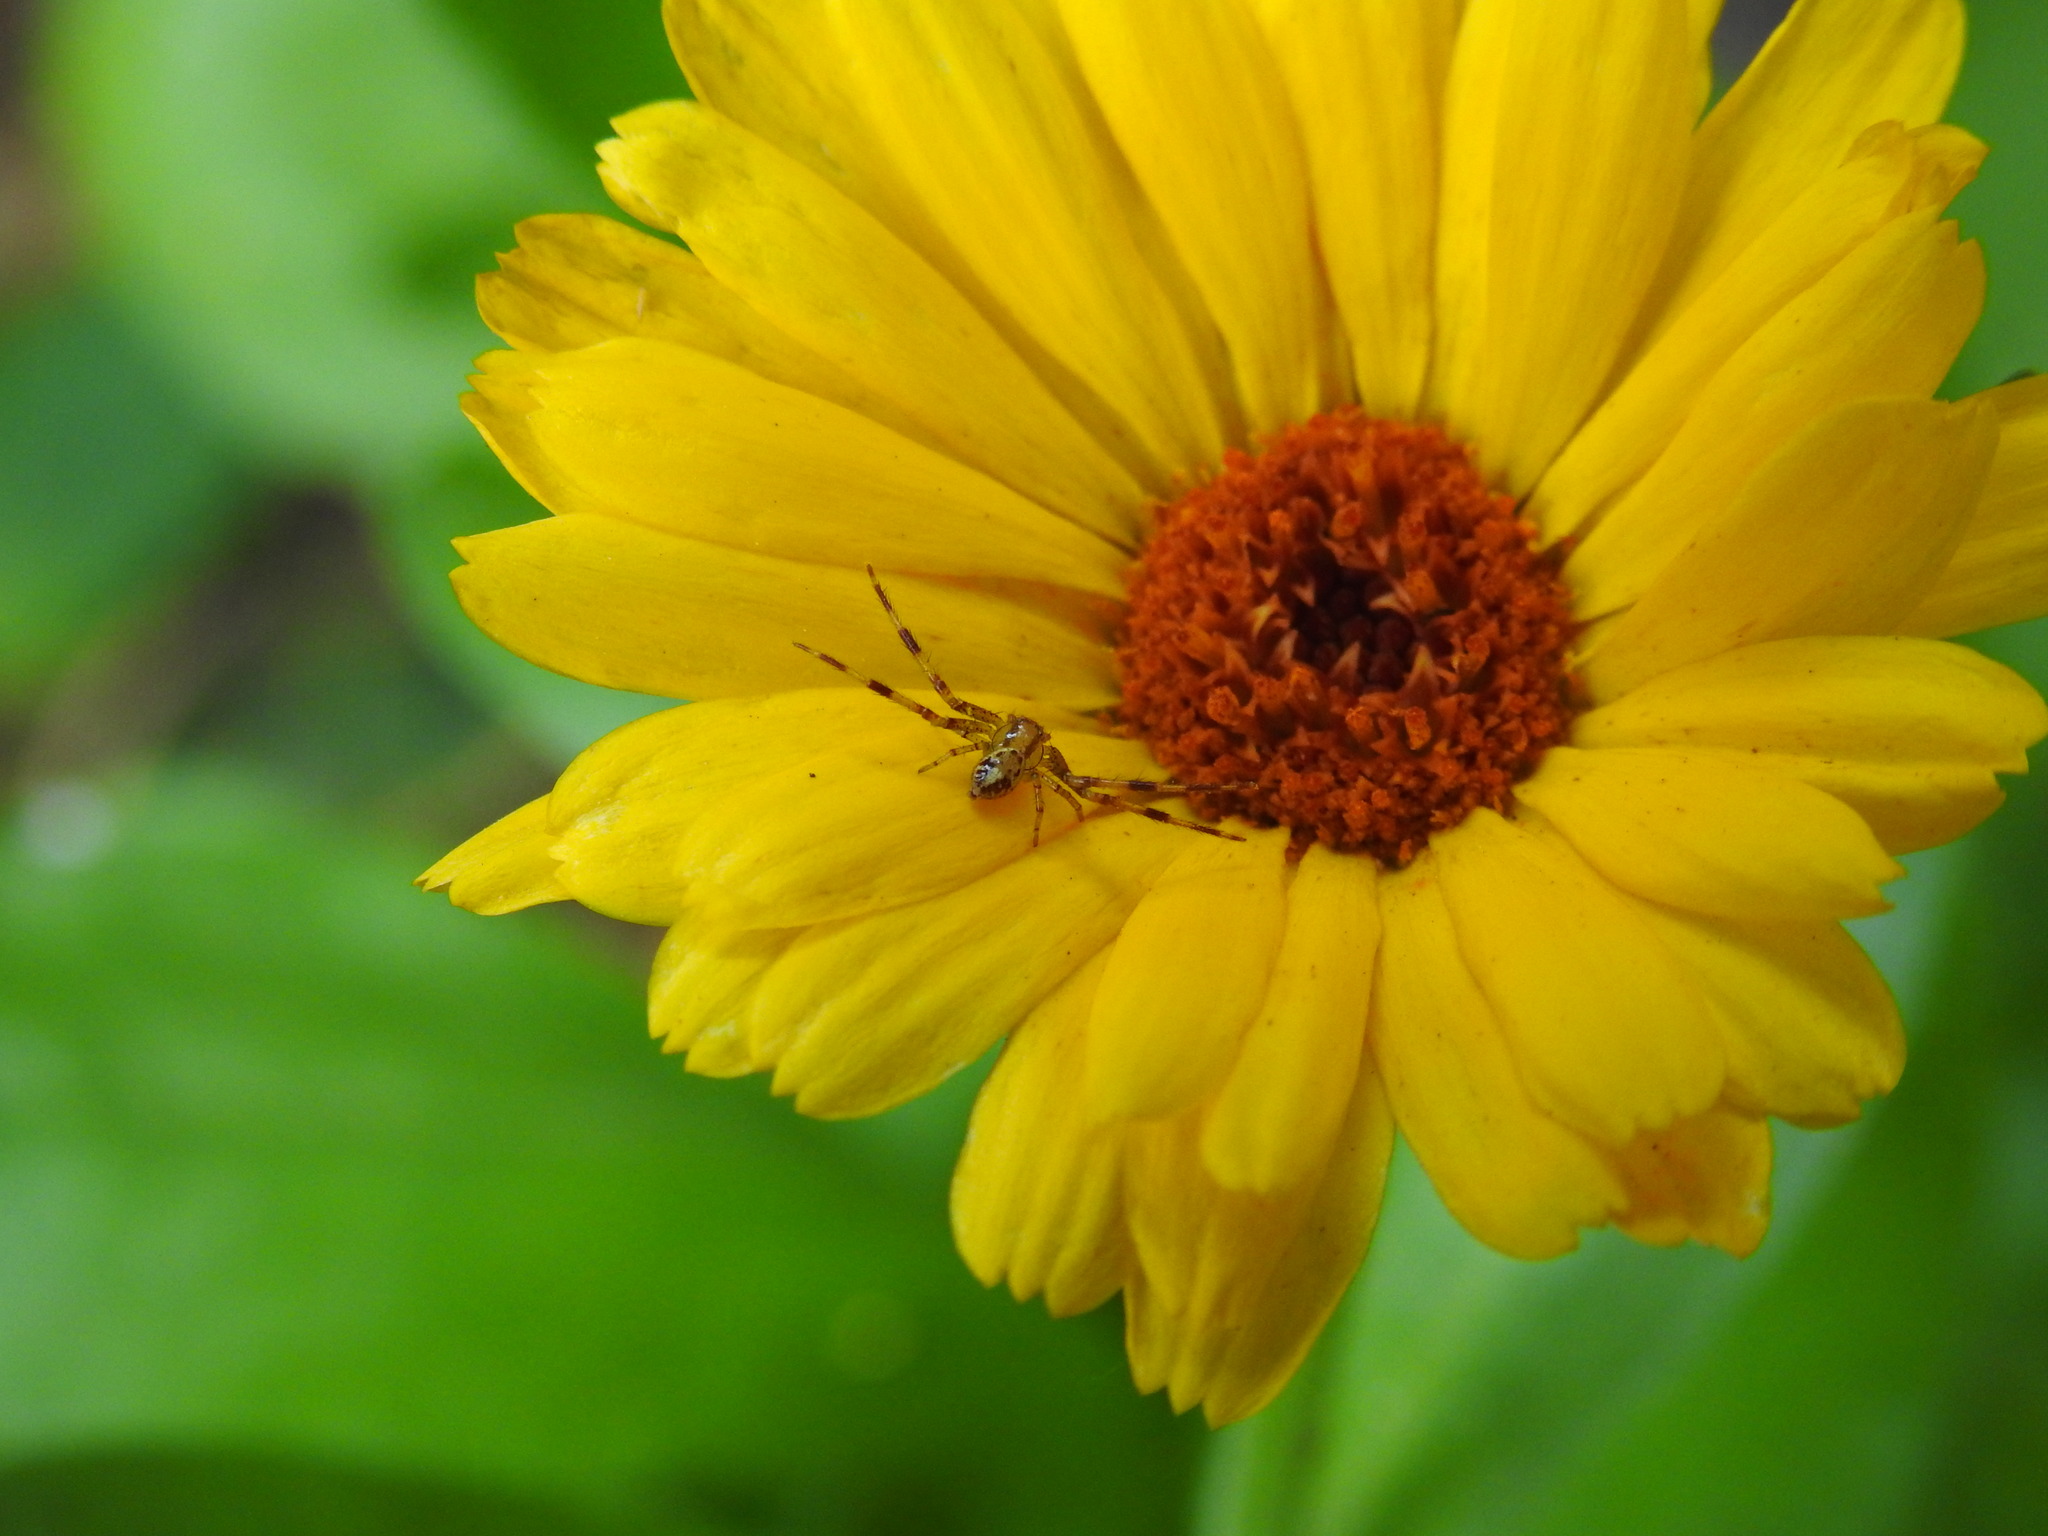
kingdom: Animalia
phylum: Arthropoda
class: Arachnida
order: Araneae
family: Thomisidae
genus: Misumenops
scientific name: Misumenops
